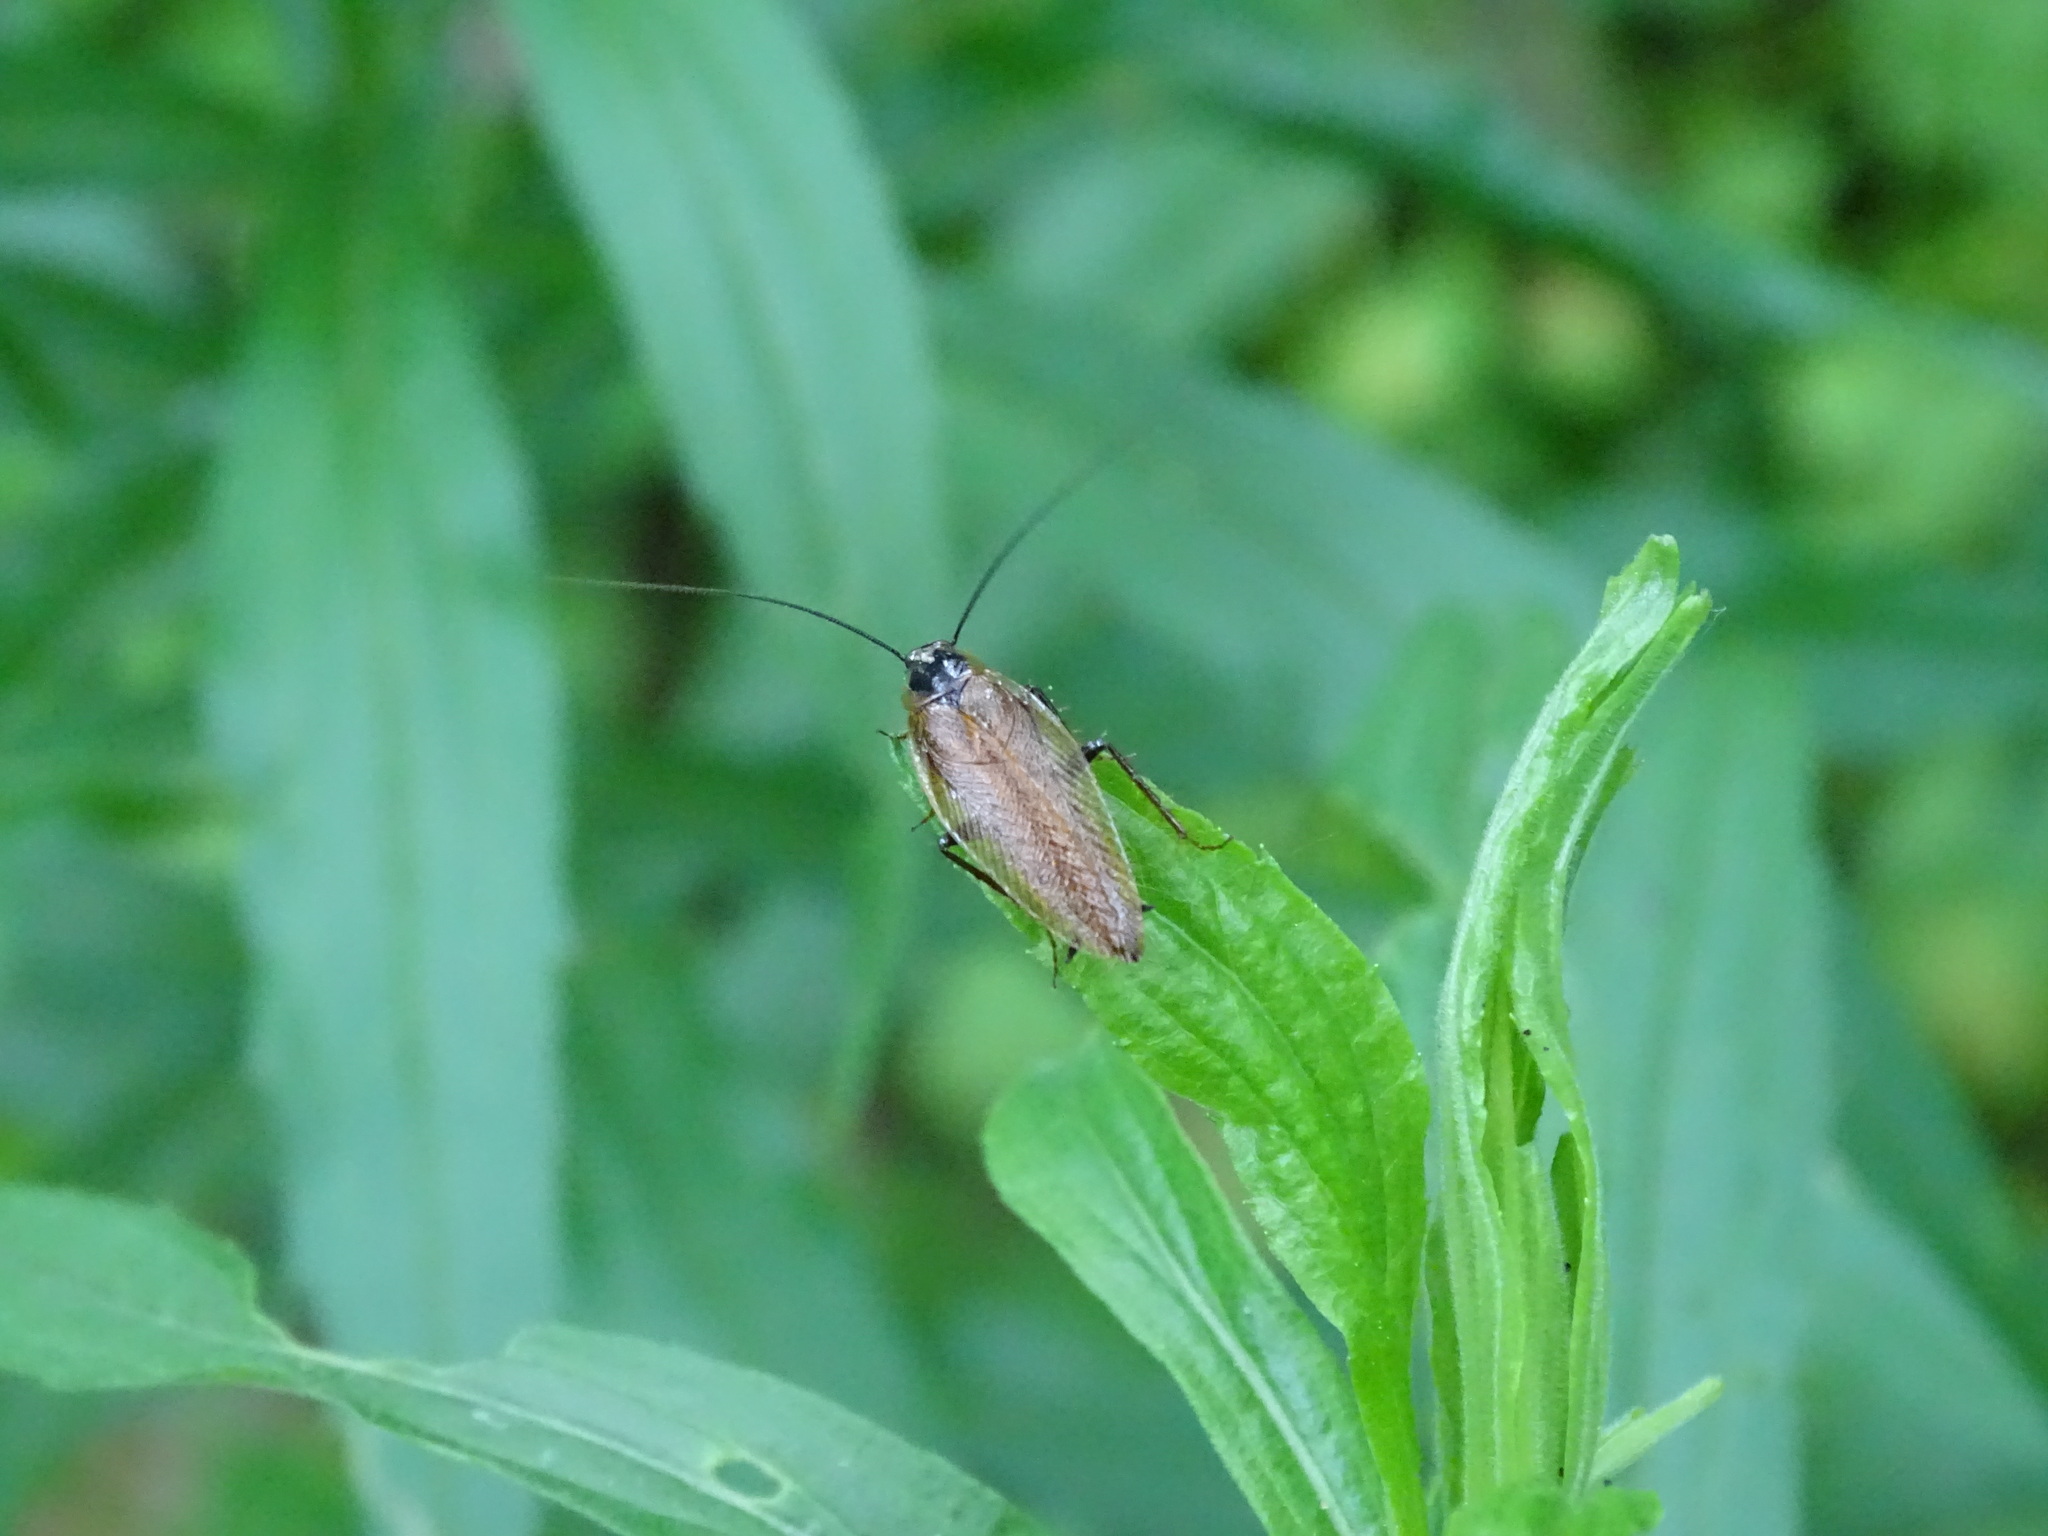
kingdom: Animalia
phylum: Arthropoda
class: Insecta
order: Blattodea
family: Ectobiidae
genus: Ectobius
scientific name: Ectobius lapponicus
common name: Dusky cockroach
